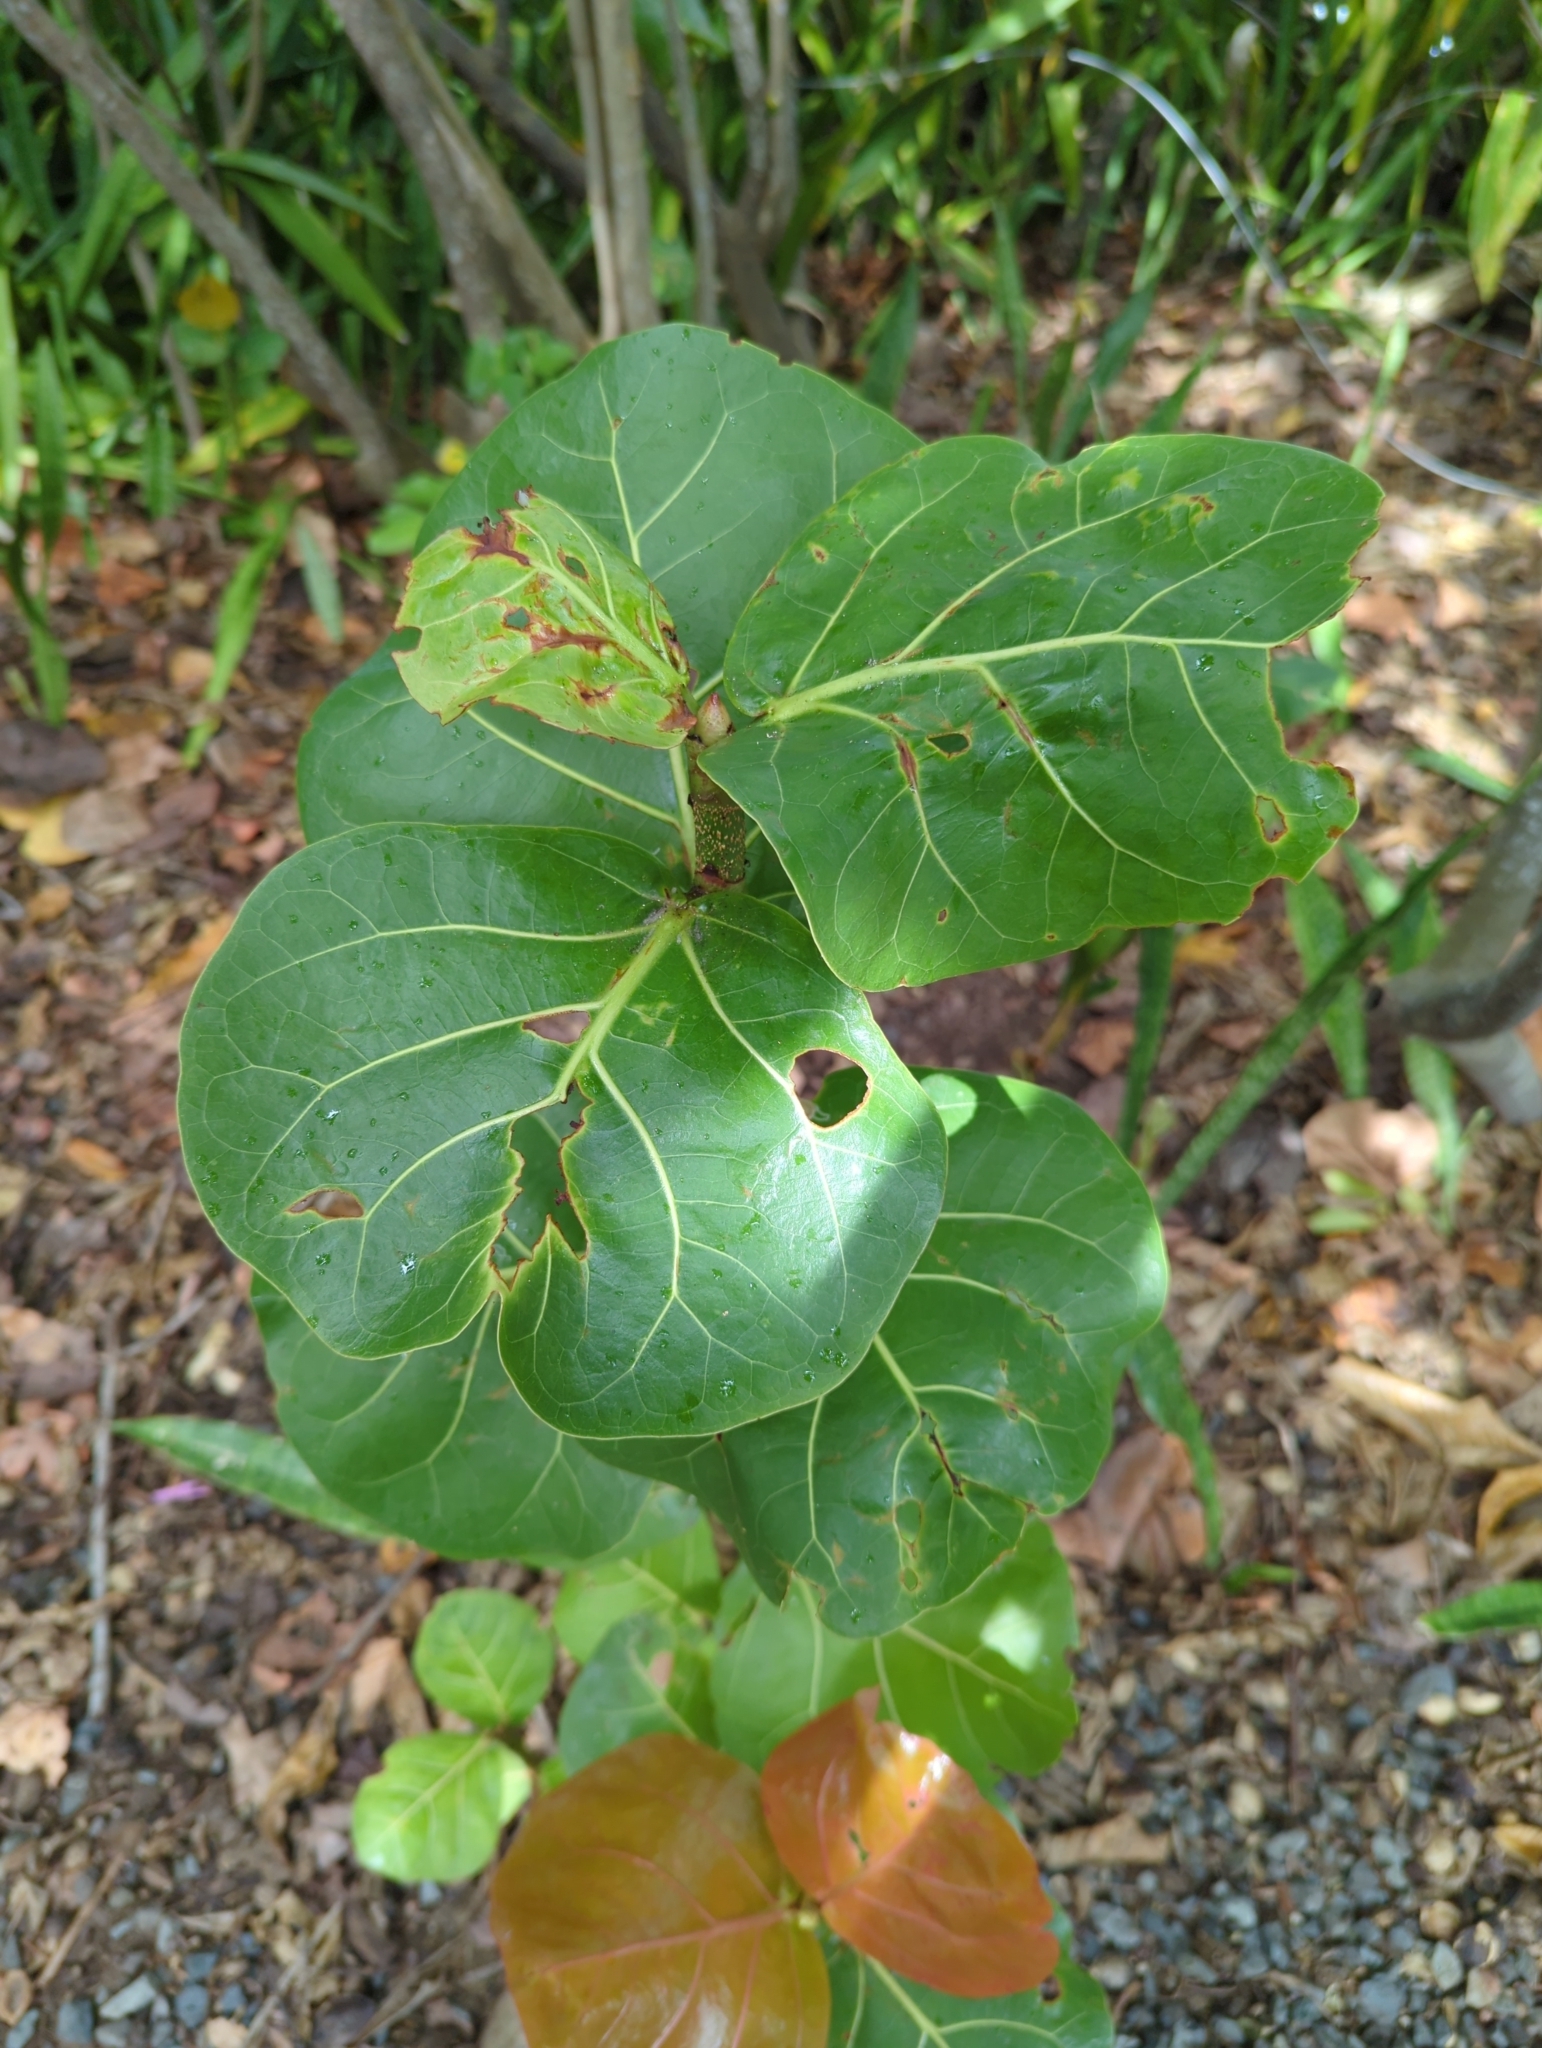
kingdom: Plantae
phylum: Tracheophyta
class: Magnoliopsida
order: Caryophyllales
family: Polygonaceae
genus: Coccoloba
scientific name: Coccoloba uvifera
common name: Seagrape
